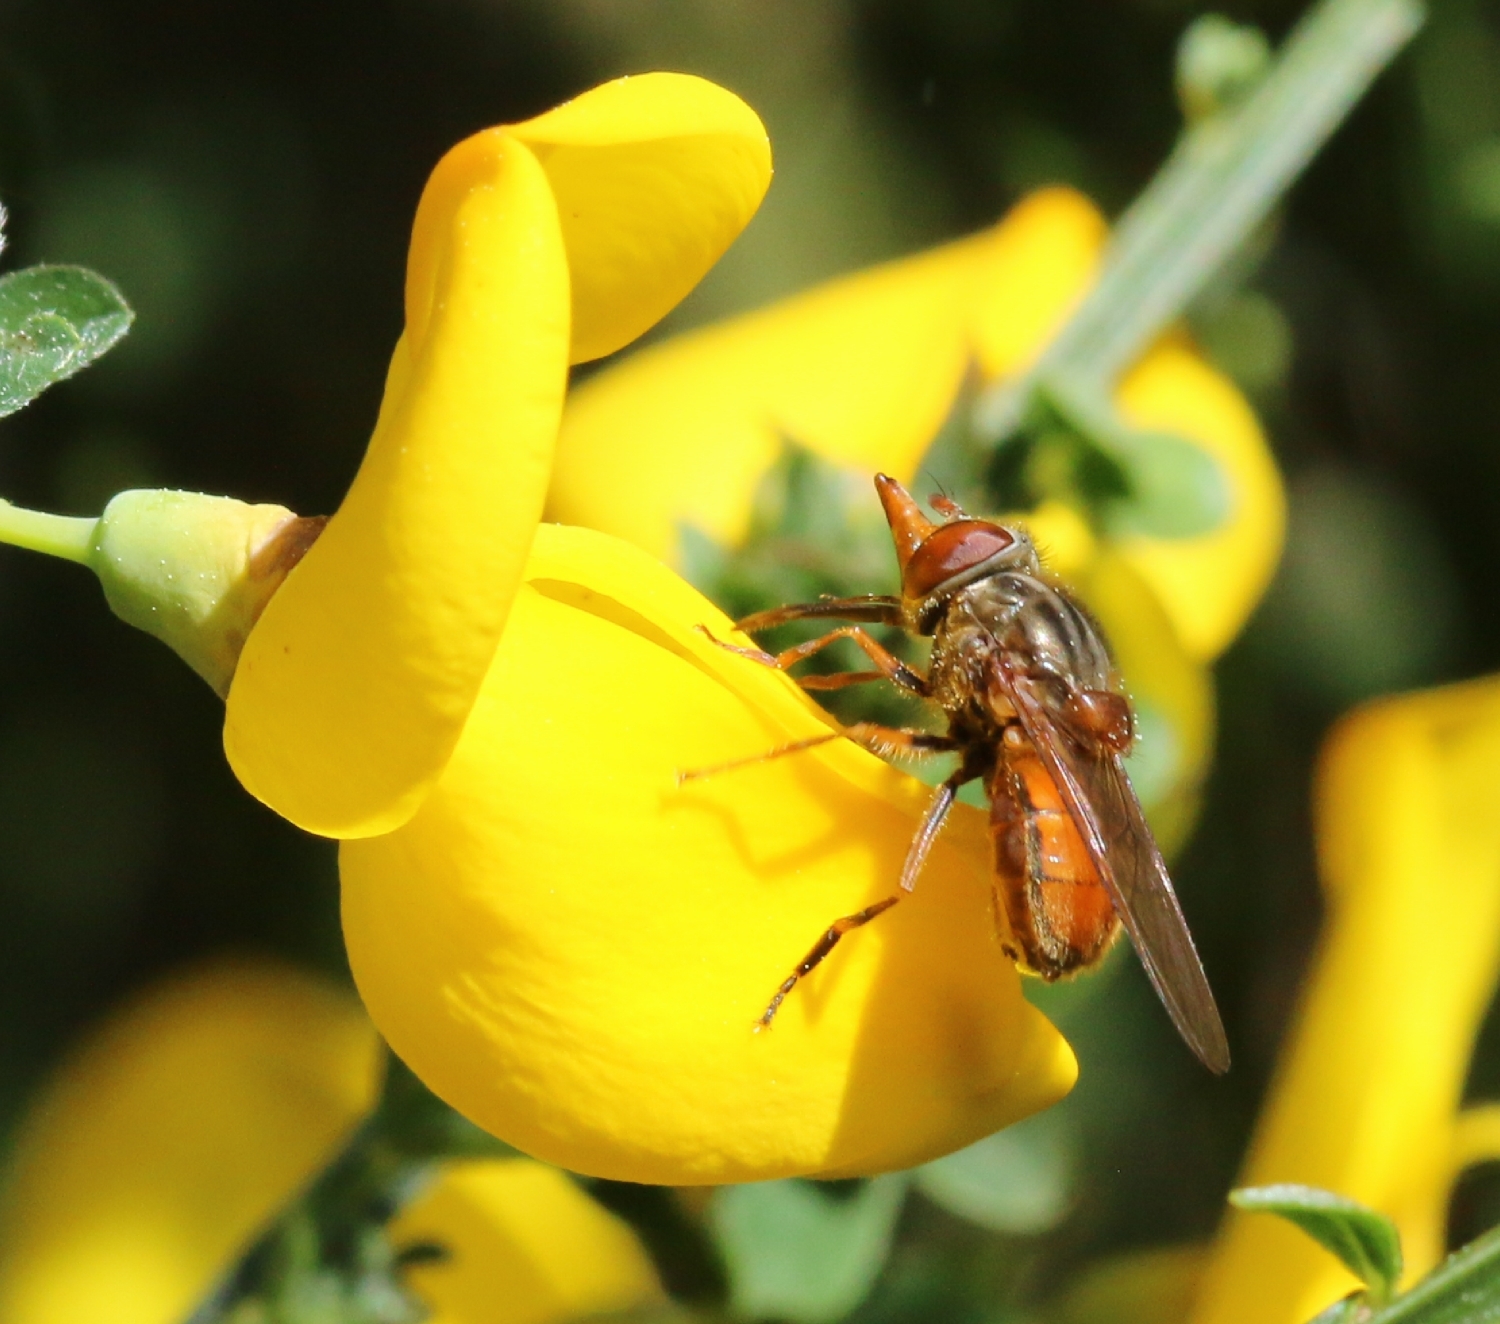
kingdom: Animalia
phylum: Arthropoda
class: Insecta
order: Diptera
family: Syrphidae
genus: Rhingia
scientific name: Rhingia campestris
